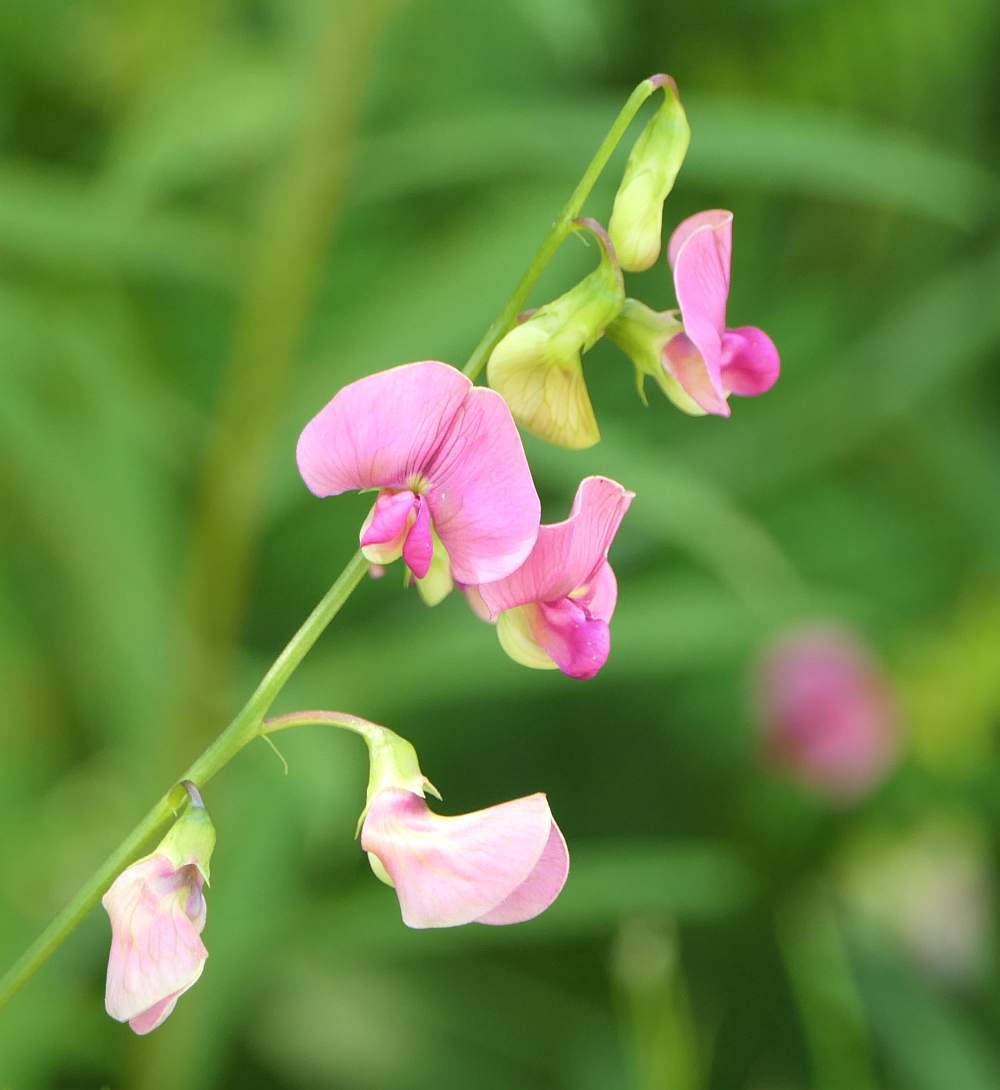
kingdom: Plantae
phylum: Tracheophyta
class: Magnoliopsida
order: Fabales
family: Fabaceae
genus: Lathyrus
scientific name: Lathyrus sylvestris
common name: Flat pea
